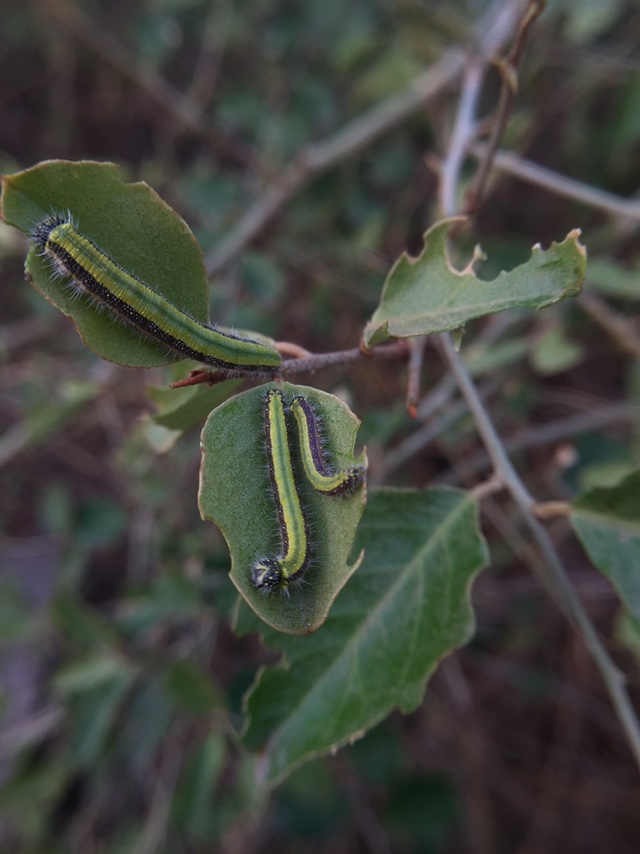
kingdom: Animalia
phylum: Arthropoda
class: Insecta
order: Lepidoptera
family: Pieridae
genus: Belenois
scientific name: Belenois aurota
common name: Brown-veined white
